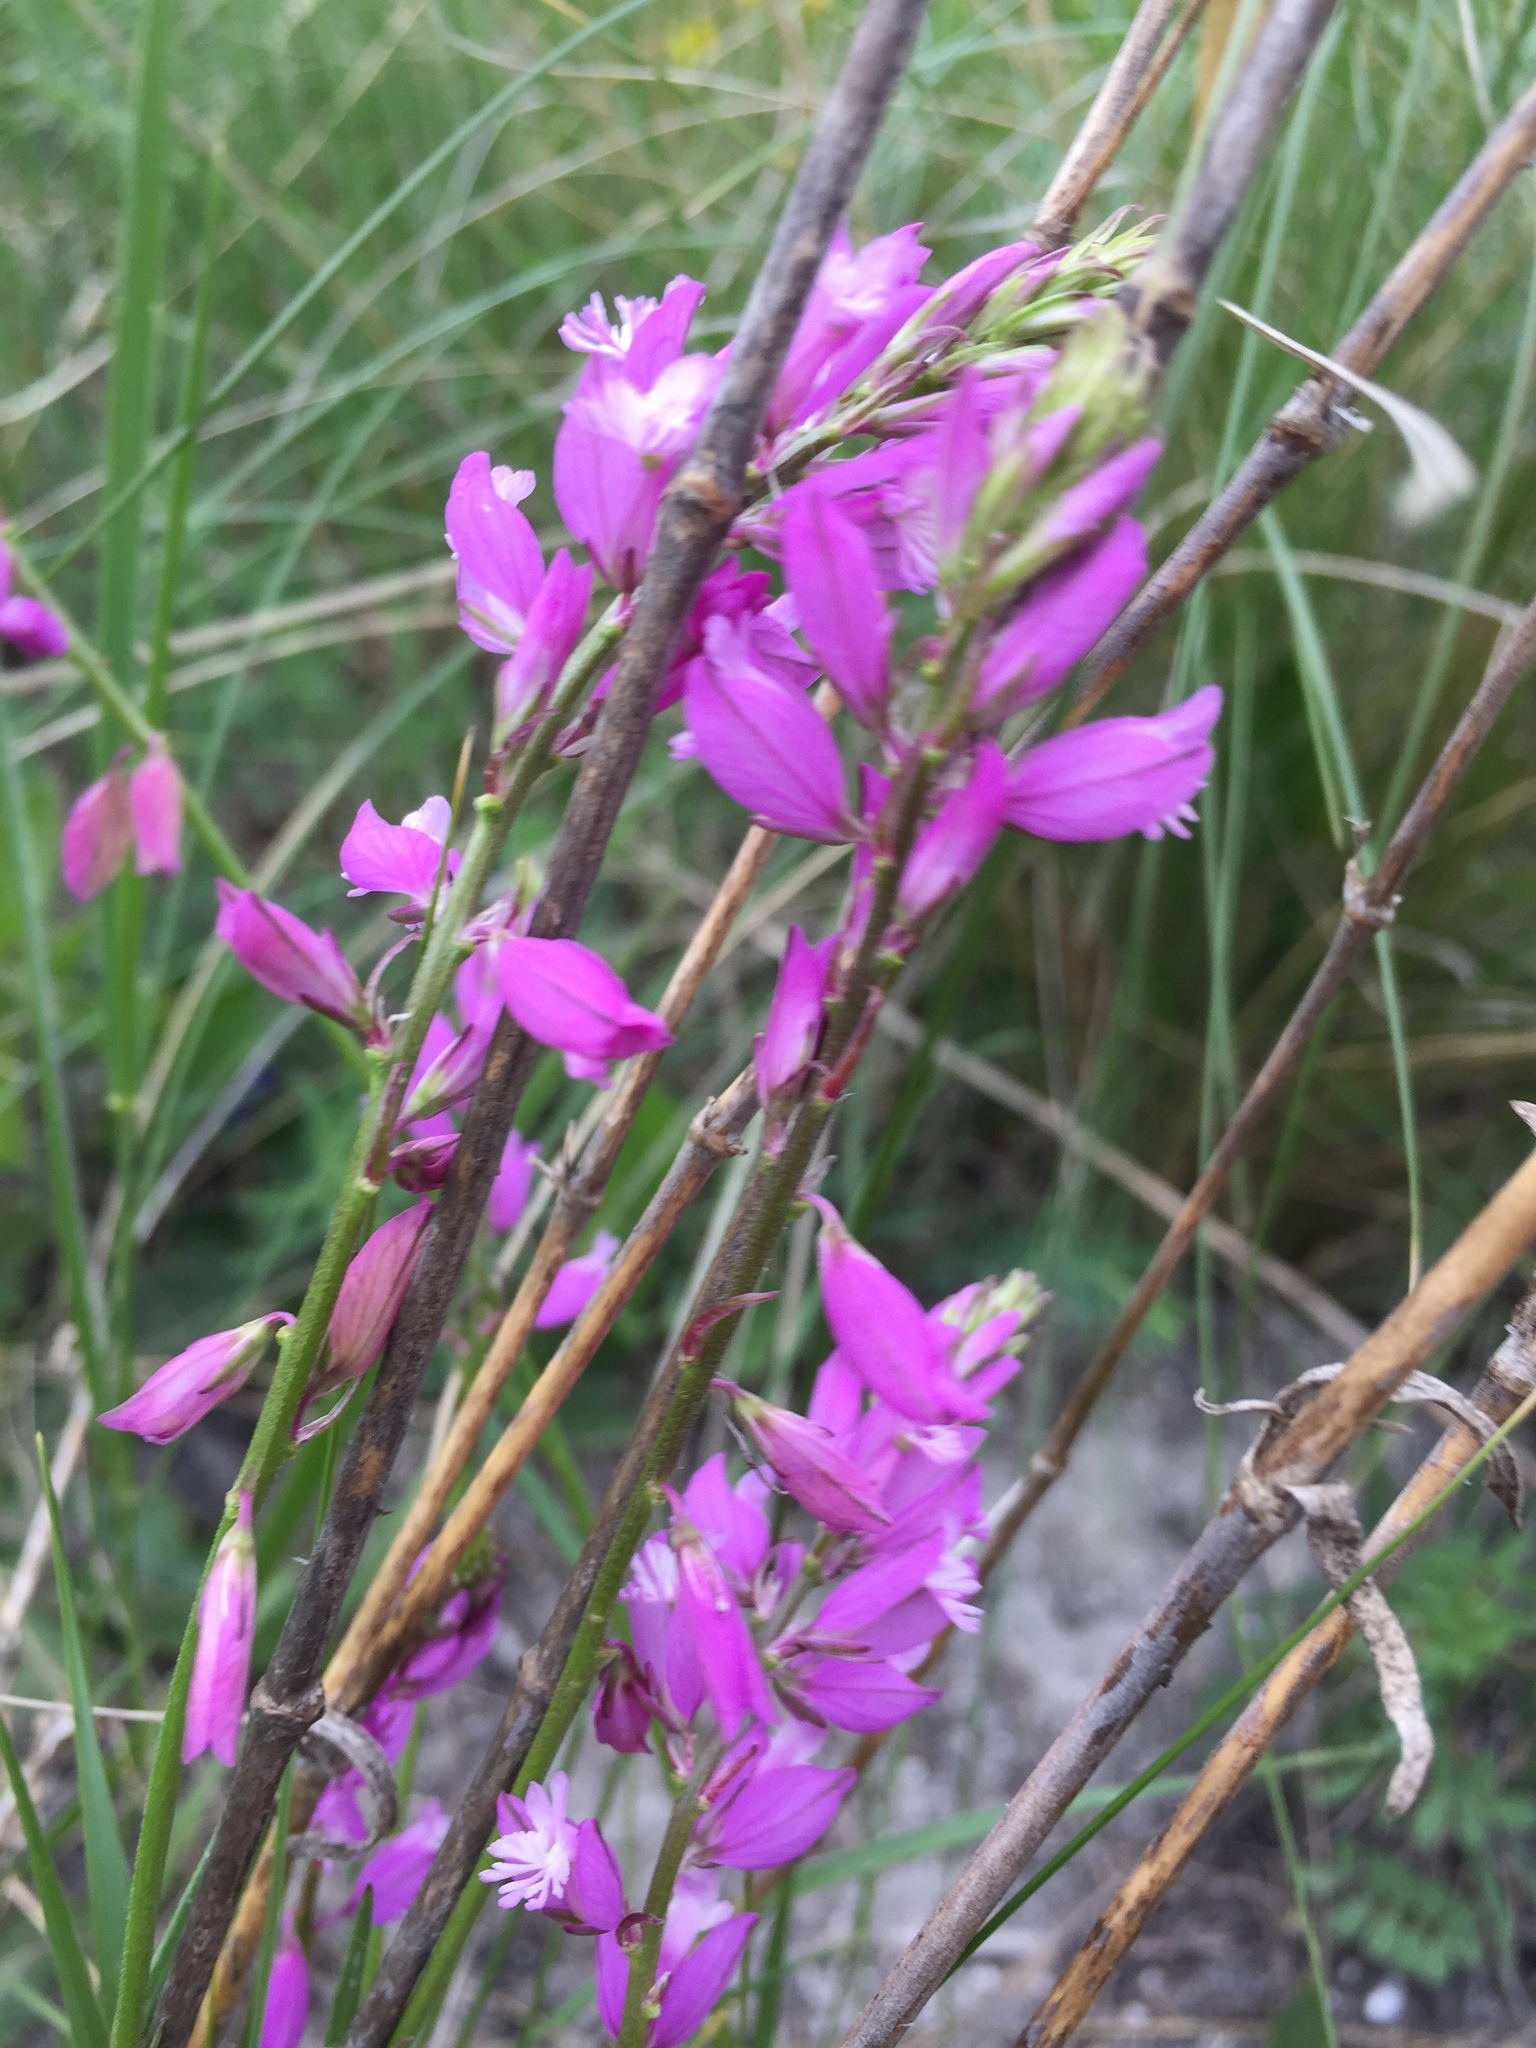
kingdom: Plantae
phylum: Tracheophyta
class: Magnoliopsida
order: Asterales
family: Campanulaceae
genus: Campanula
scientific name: Campanula sibirica
